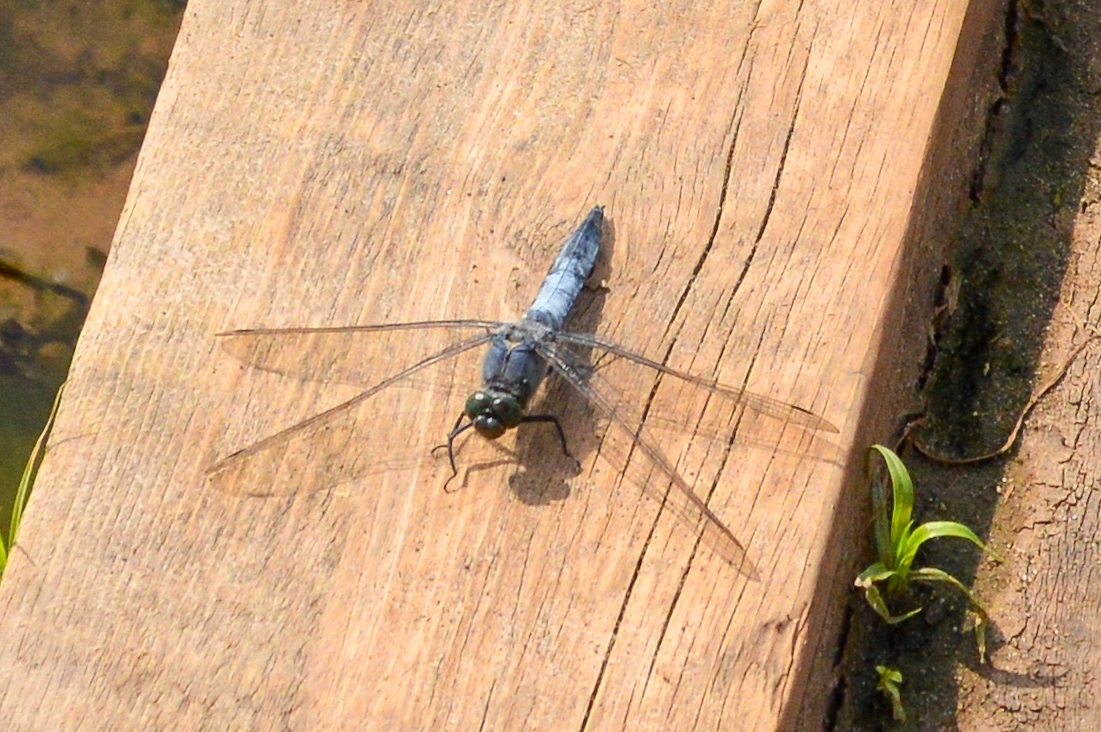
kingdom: Animalia
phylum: Arthropoda
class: Insecta
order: Odonata
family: Libellulidae
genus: Orthetrum
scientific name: Orthetrum cancellatum
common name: Black-tailed skimmer
